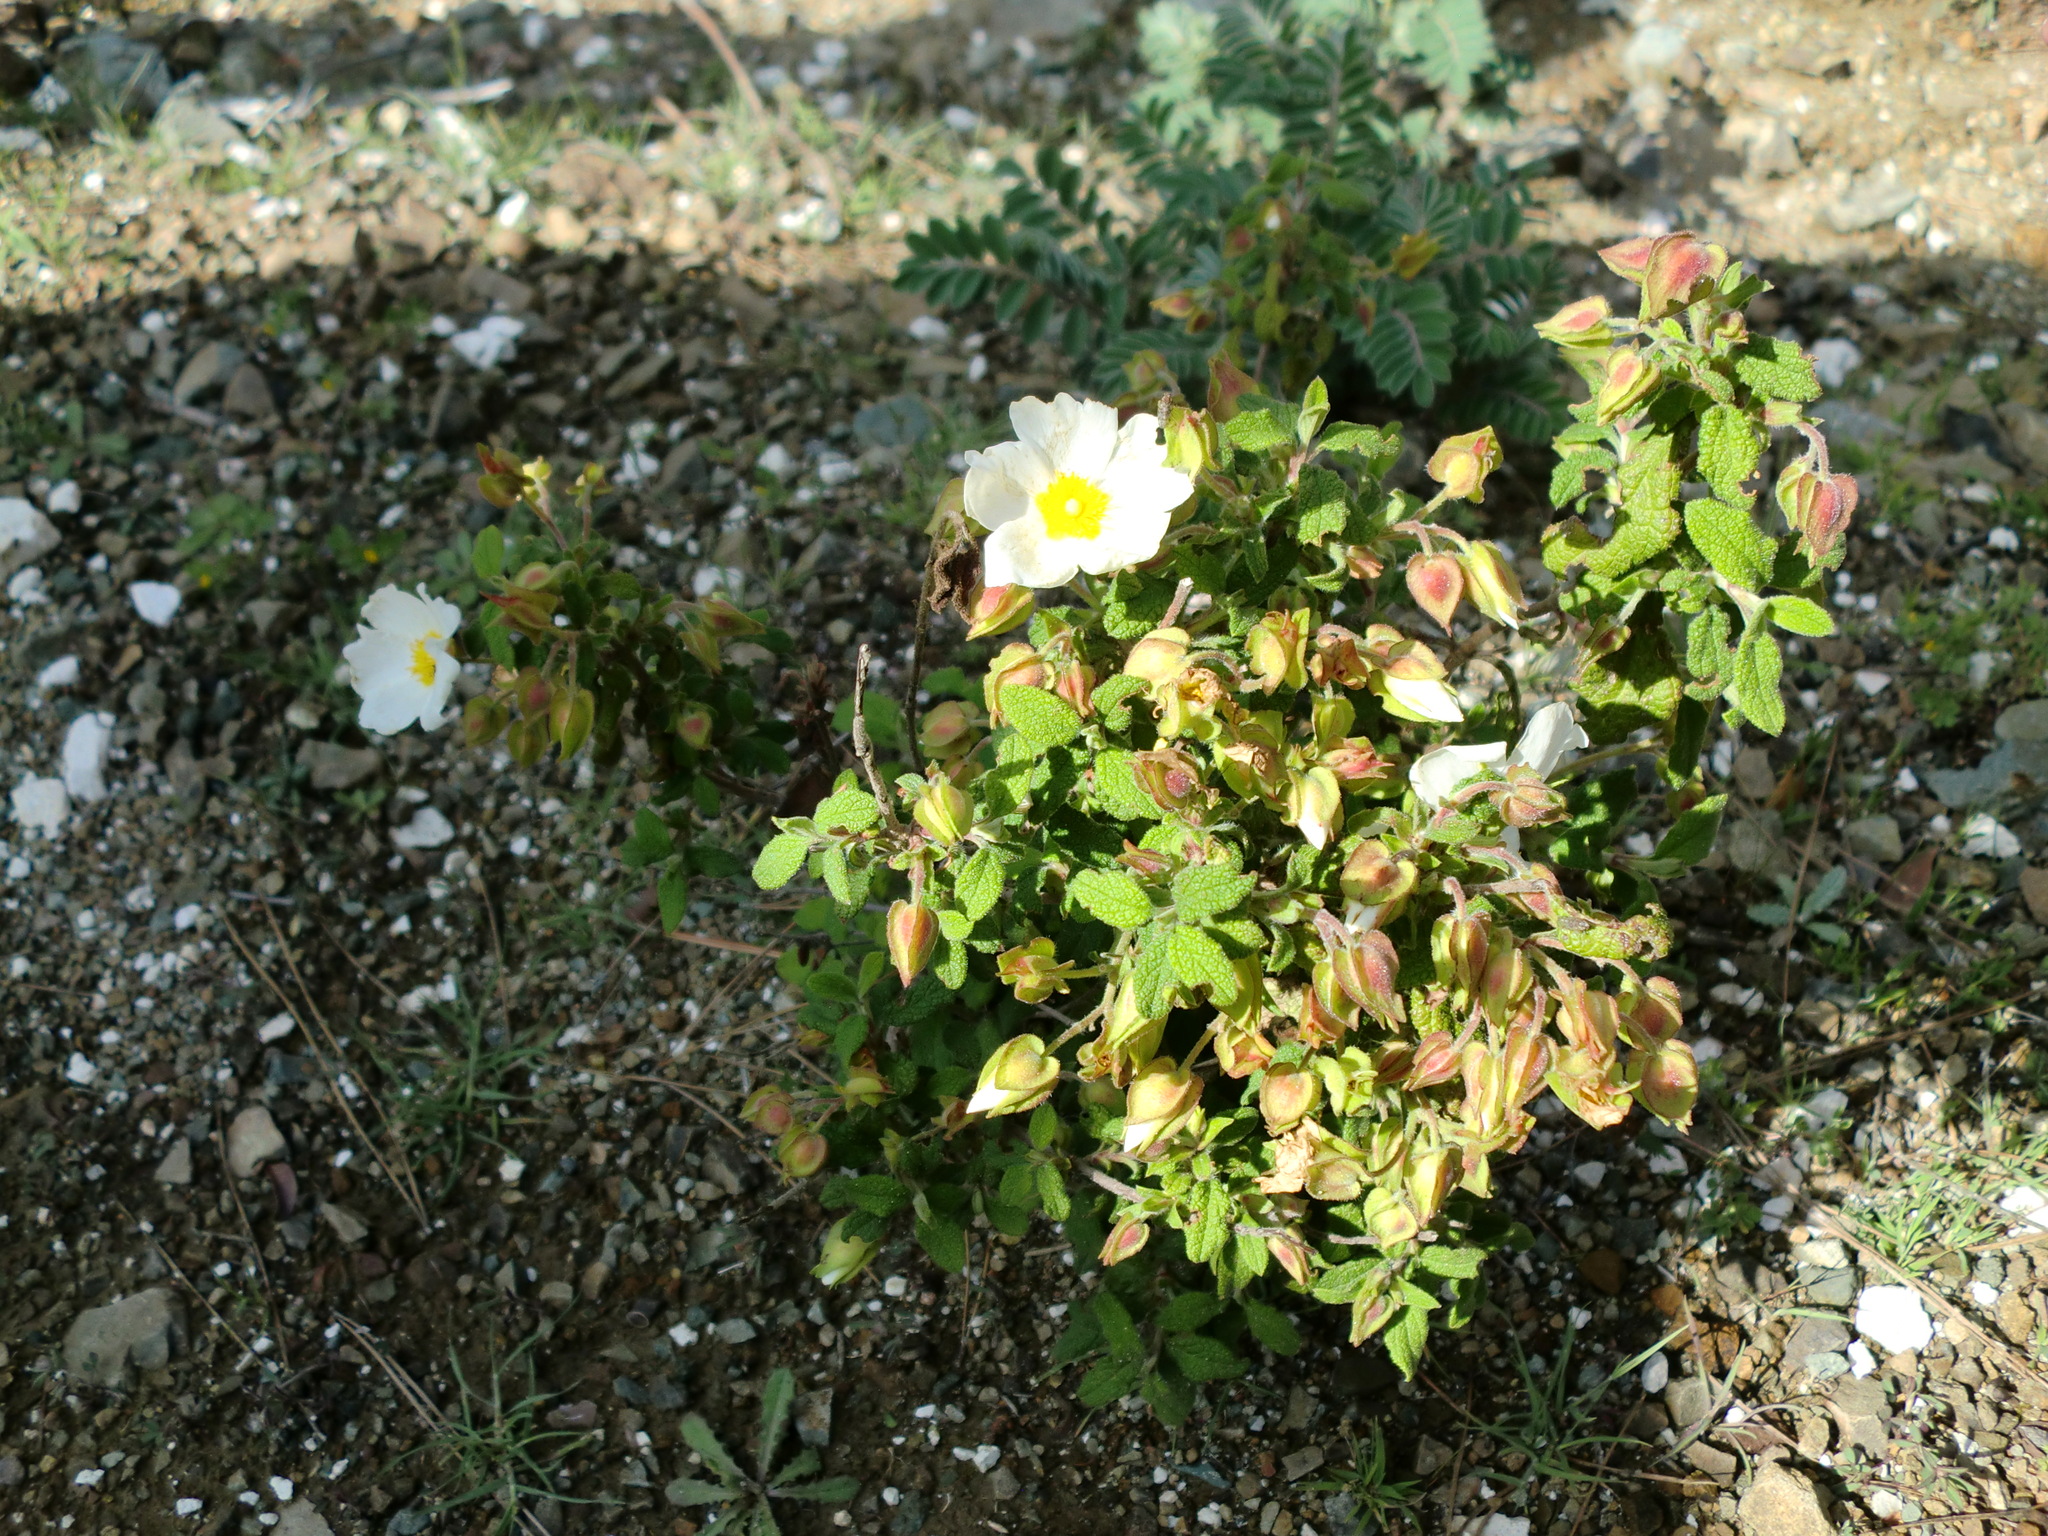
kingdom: Plantae
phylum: Tracheophyta
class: Magnoliopsida
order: Malvales
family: Cistaceae
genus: Cistus
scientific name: Cistus salviifolius
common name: Salvia cistus
